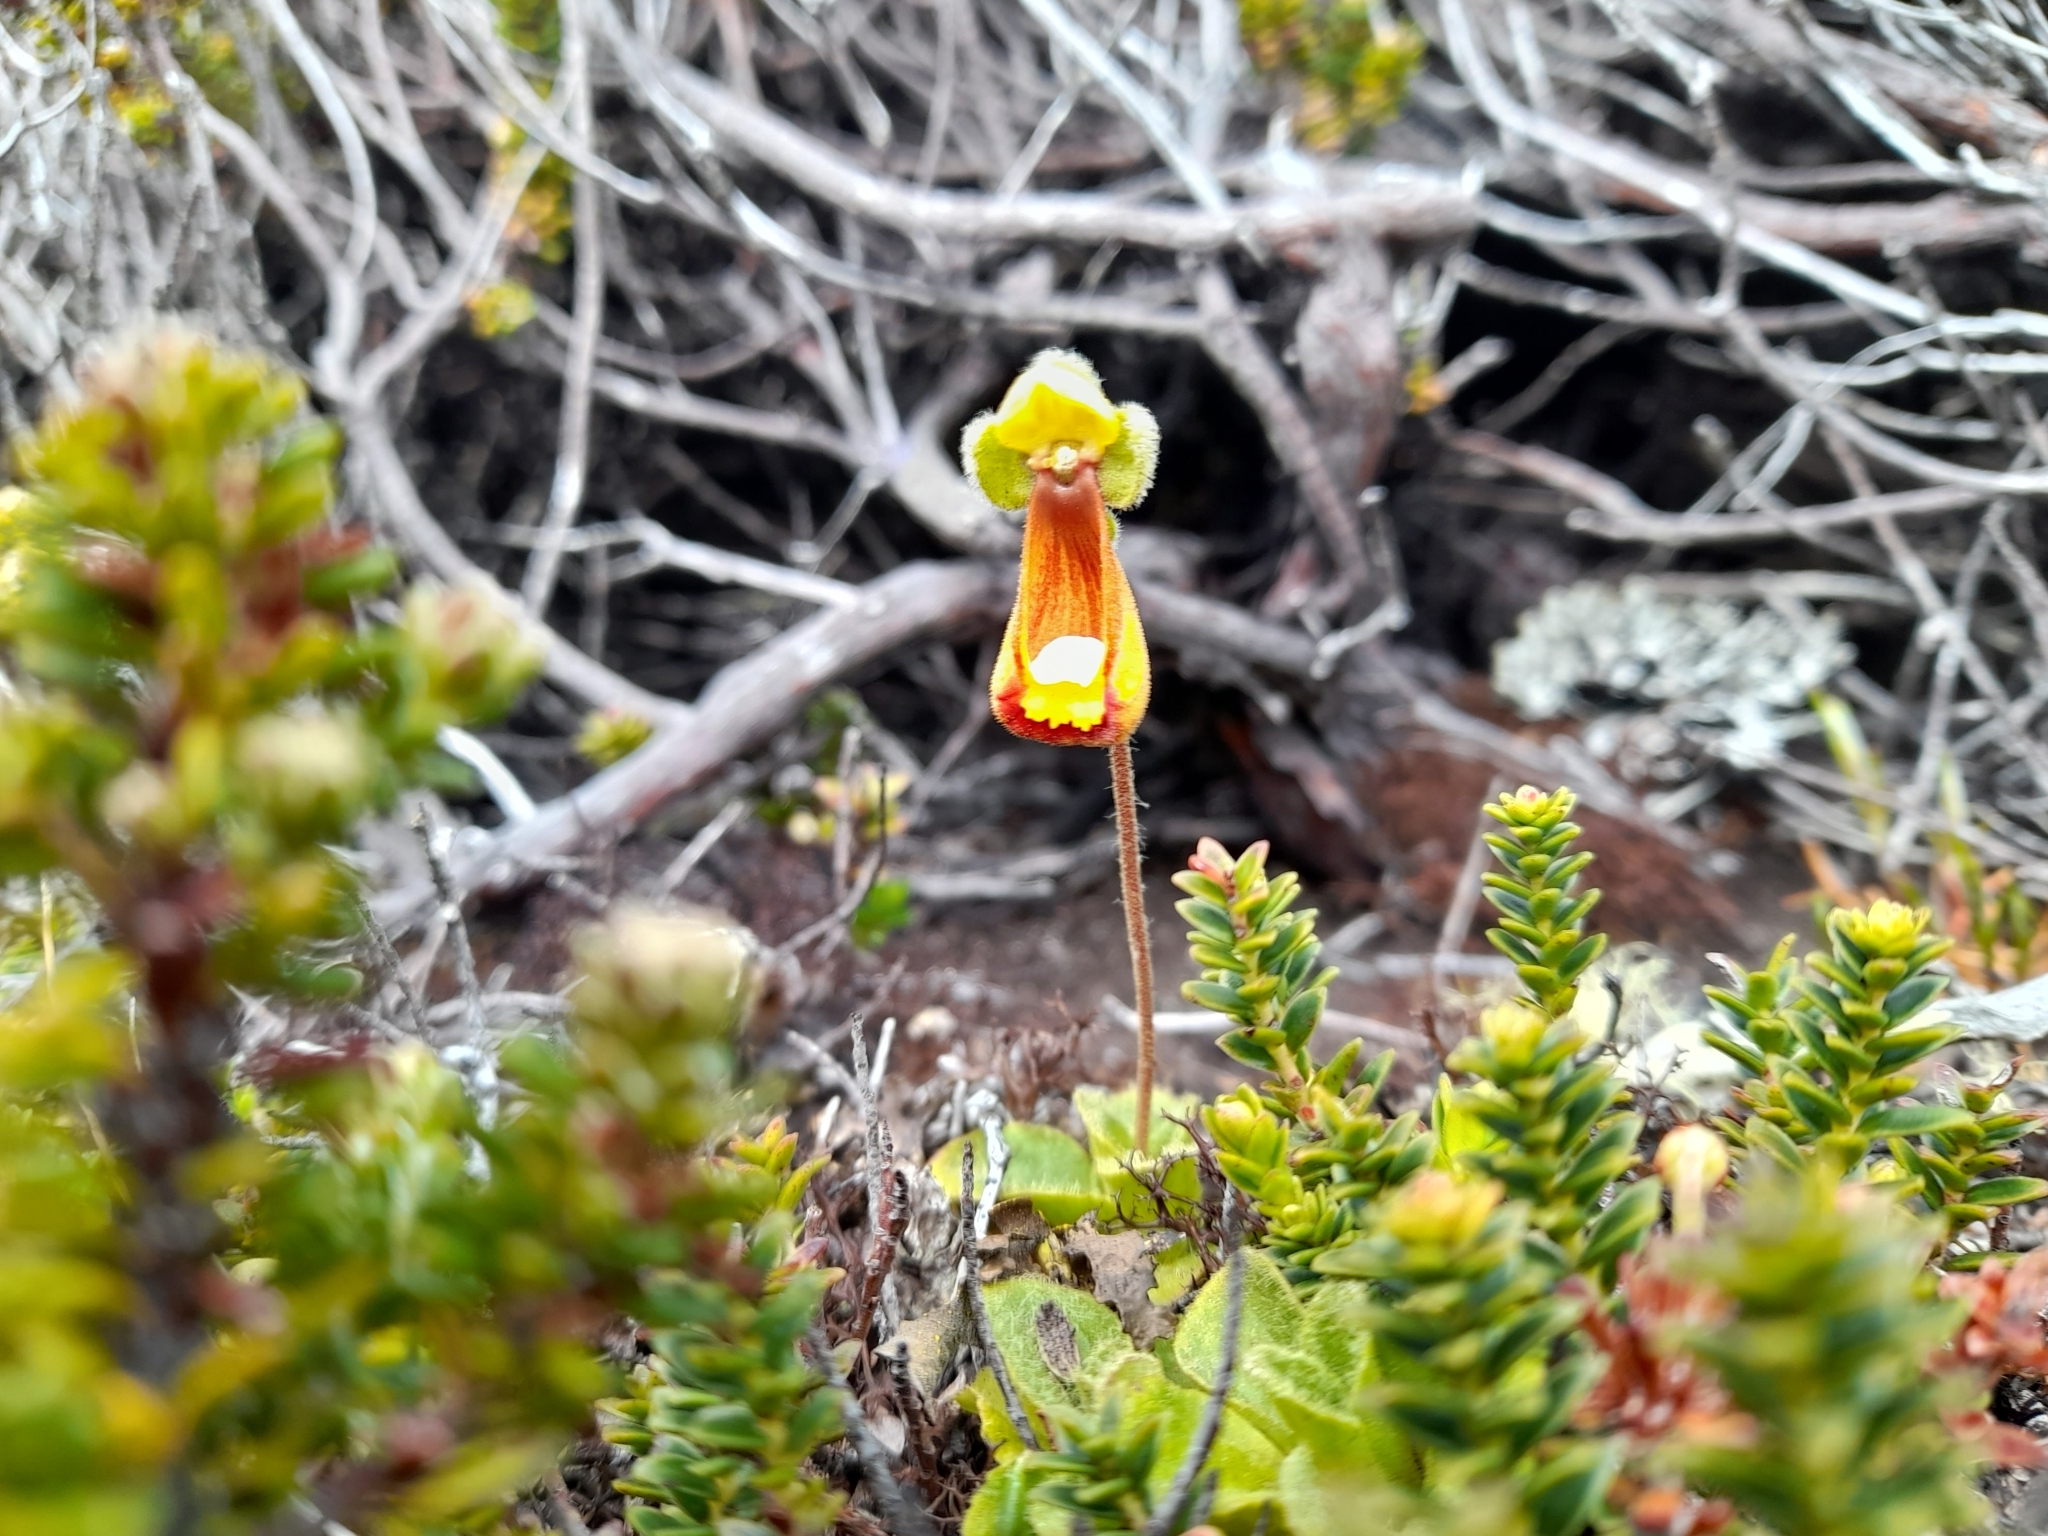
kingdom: Plantae
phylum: Tracheophyta
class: Magnoliopsida
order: Lamiales
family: Calceolariaceae
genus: Calceolaria
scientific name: Calceolaria fothergillii
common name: Lady's slipper
